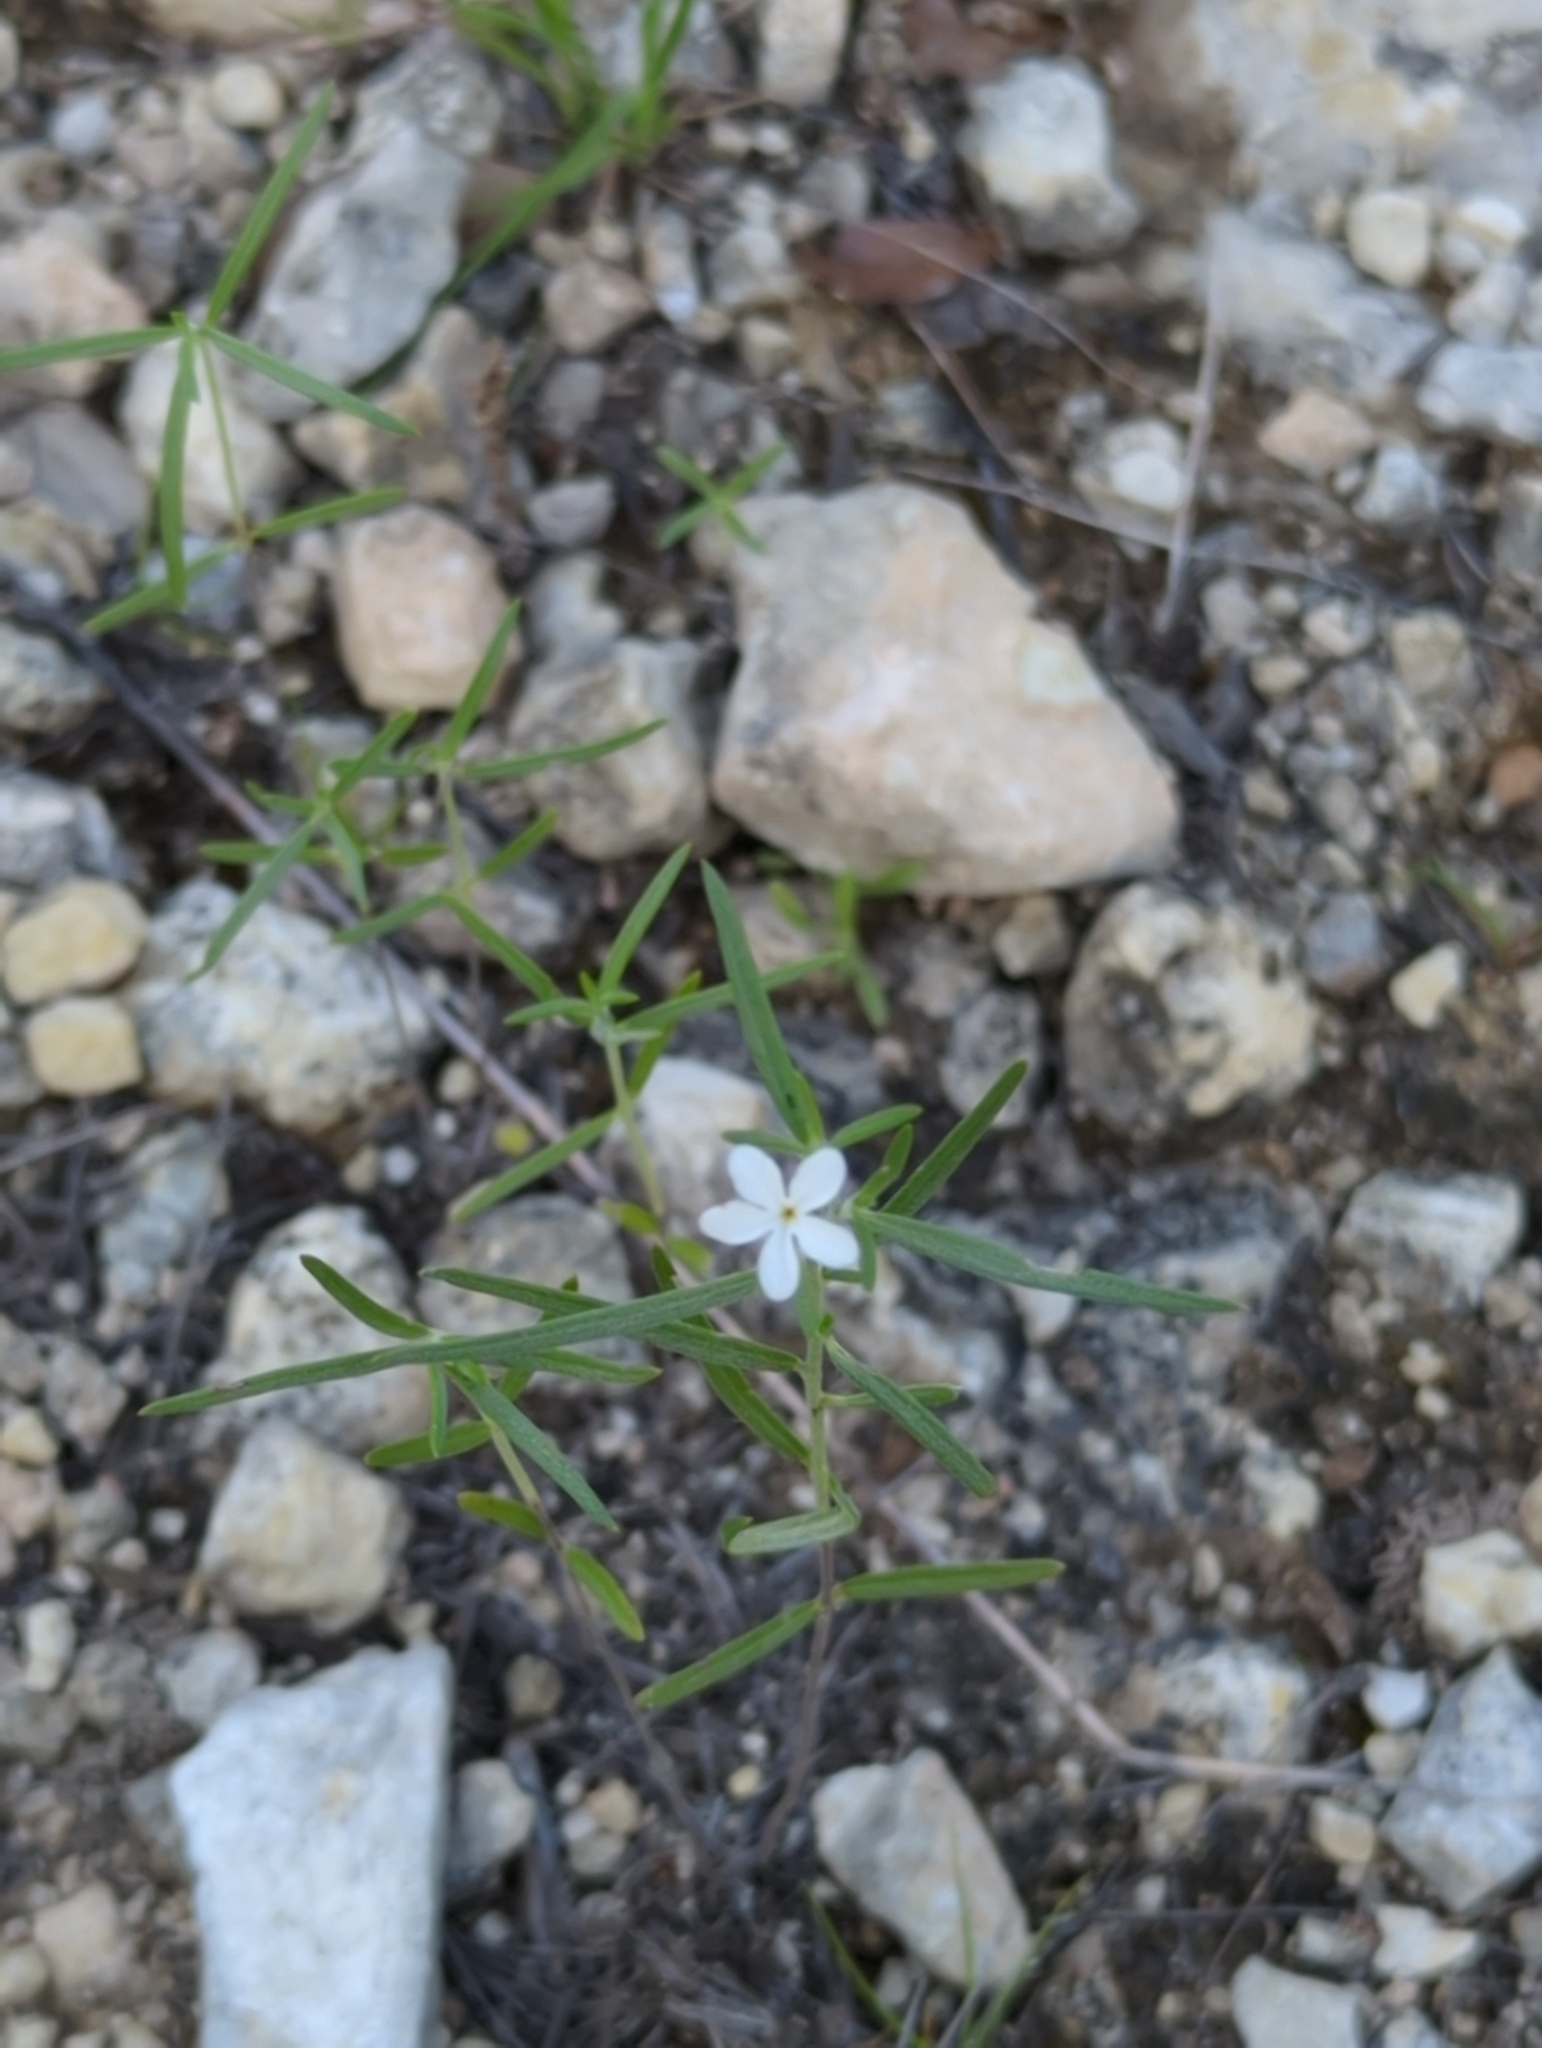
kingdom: Plantae
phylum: Tracheophyta
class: Magnoliopsida
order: Boraginales
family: Heliotropiaceae
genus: Euploca
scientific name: Euploca tenella
